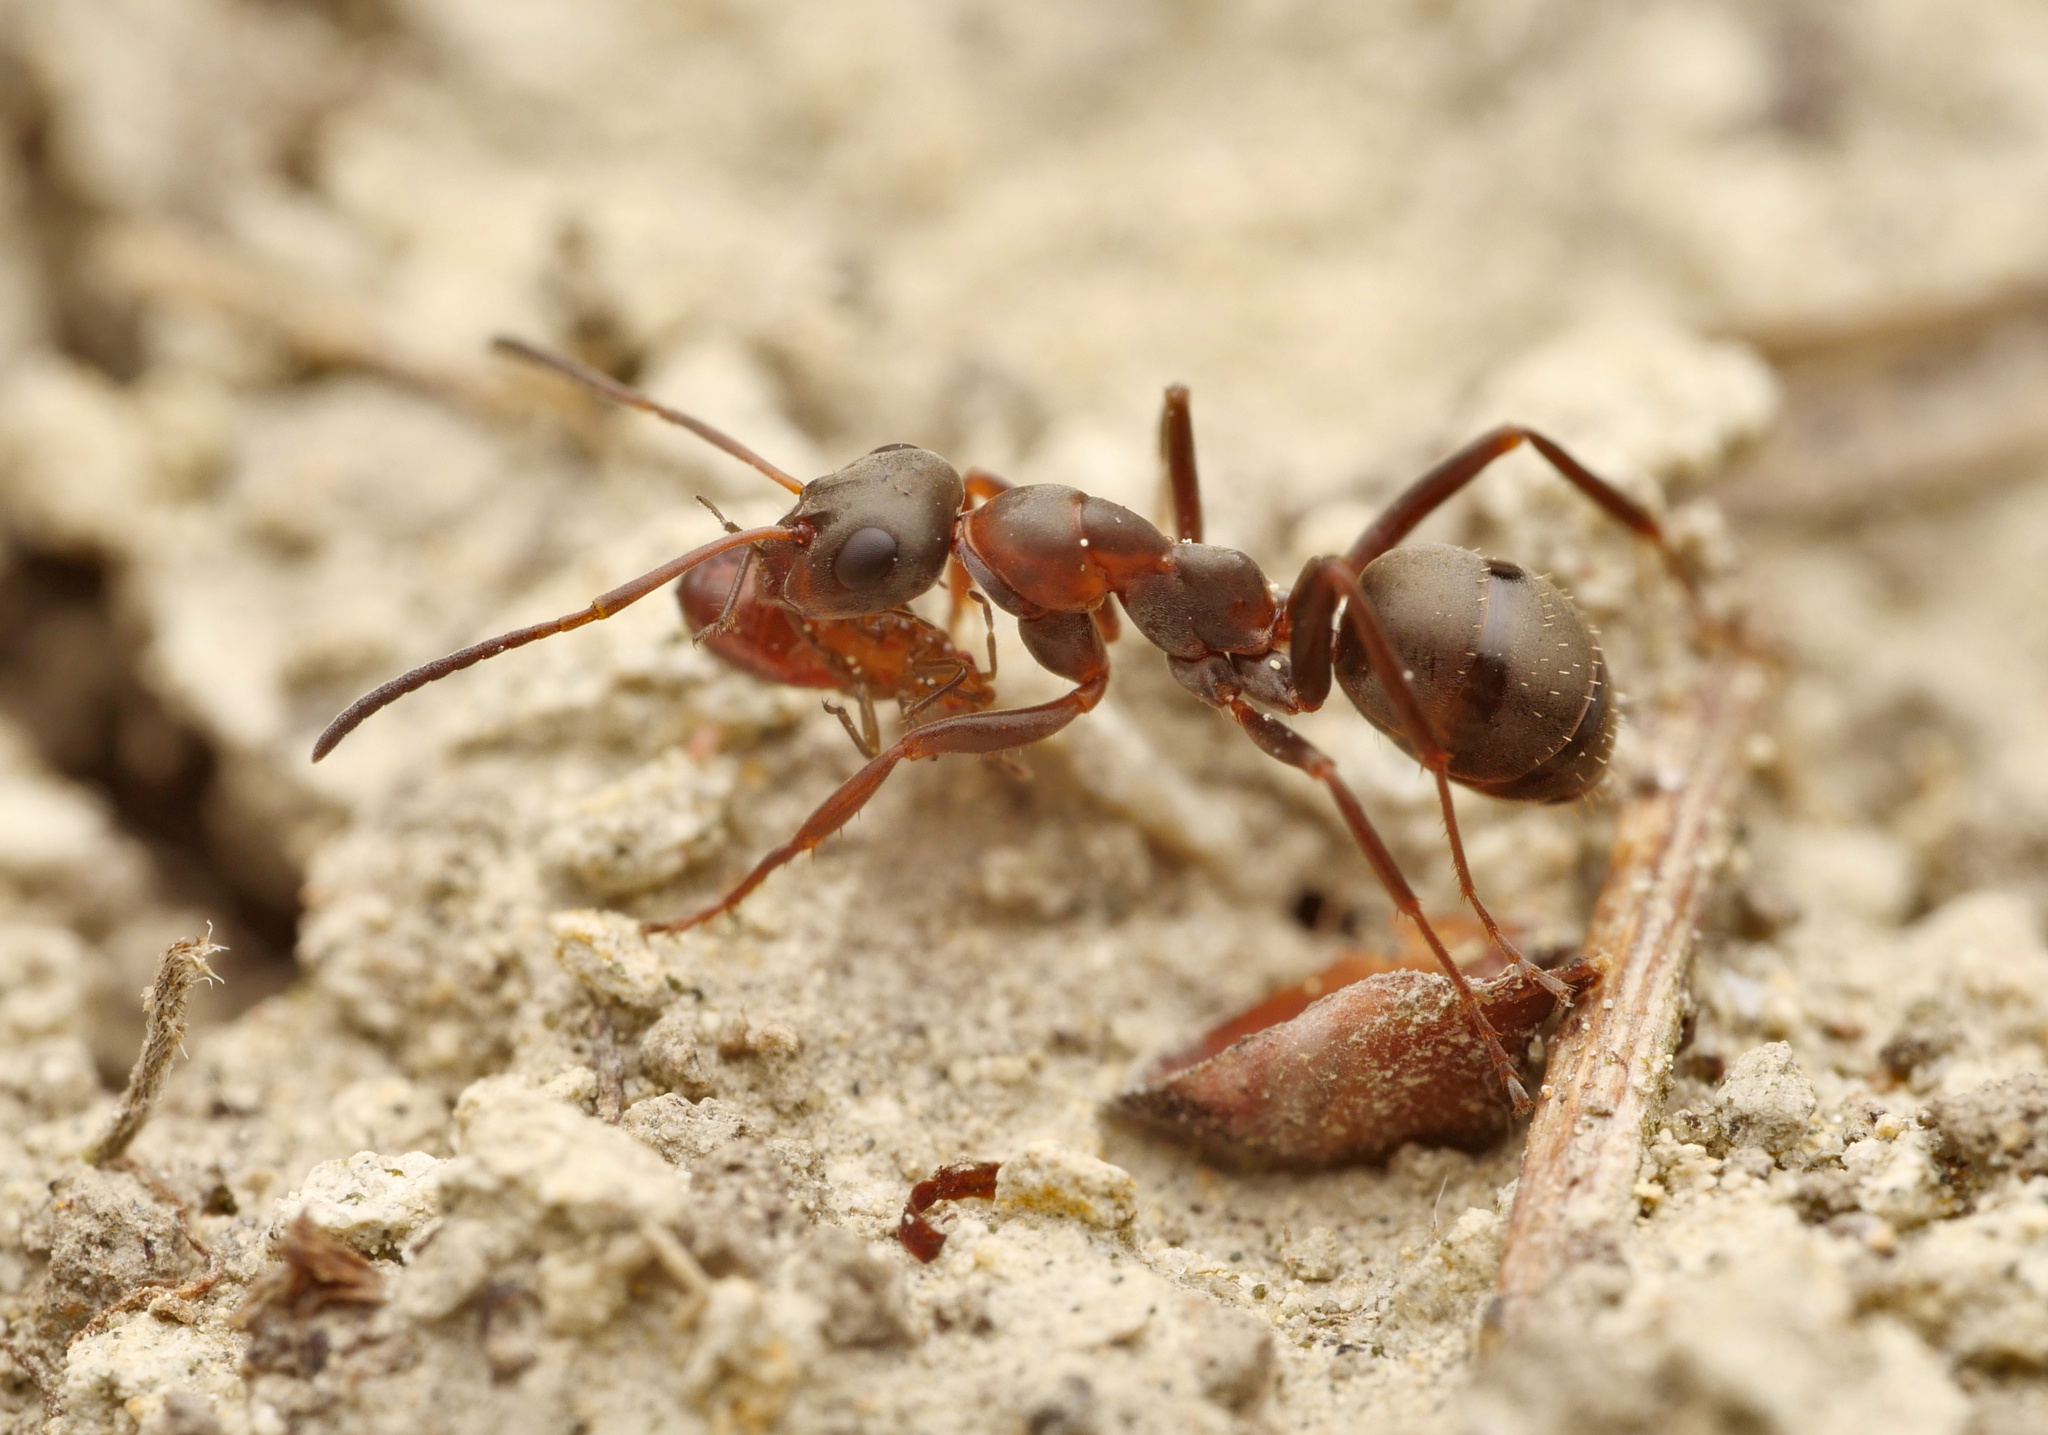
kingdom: Animalia
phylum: Arthropoda
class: Insecta
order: Hymenoptera
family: Formicidae
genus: Formica
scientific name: Formica cunicularia
